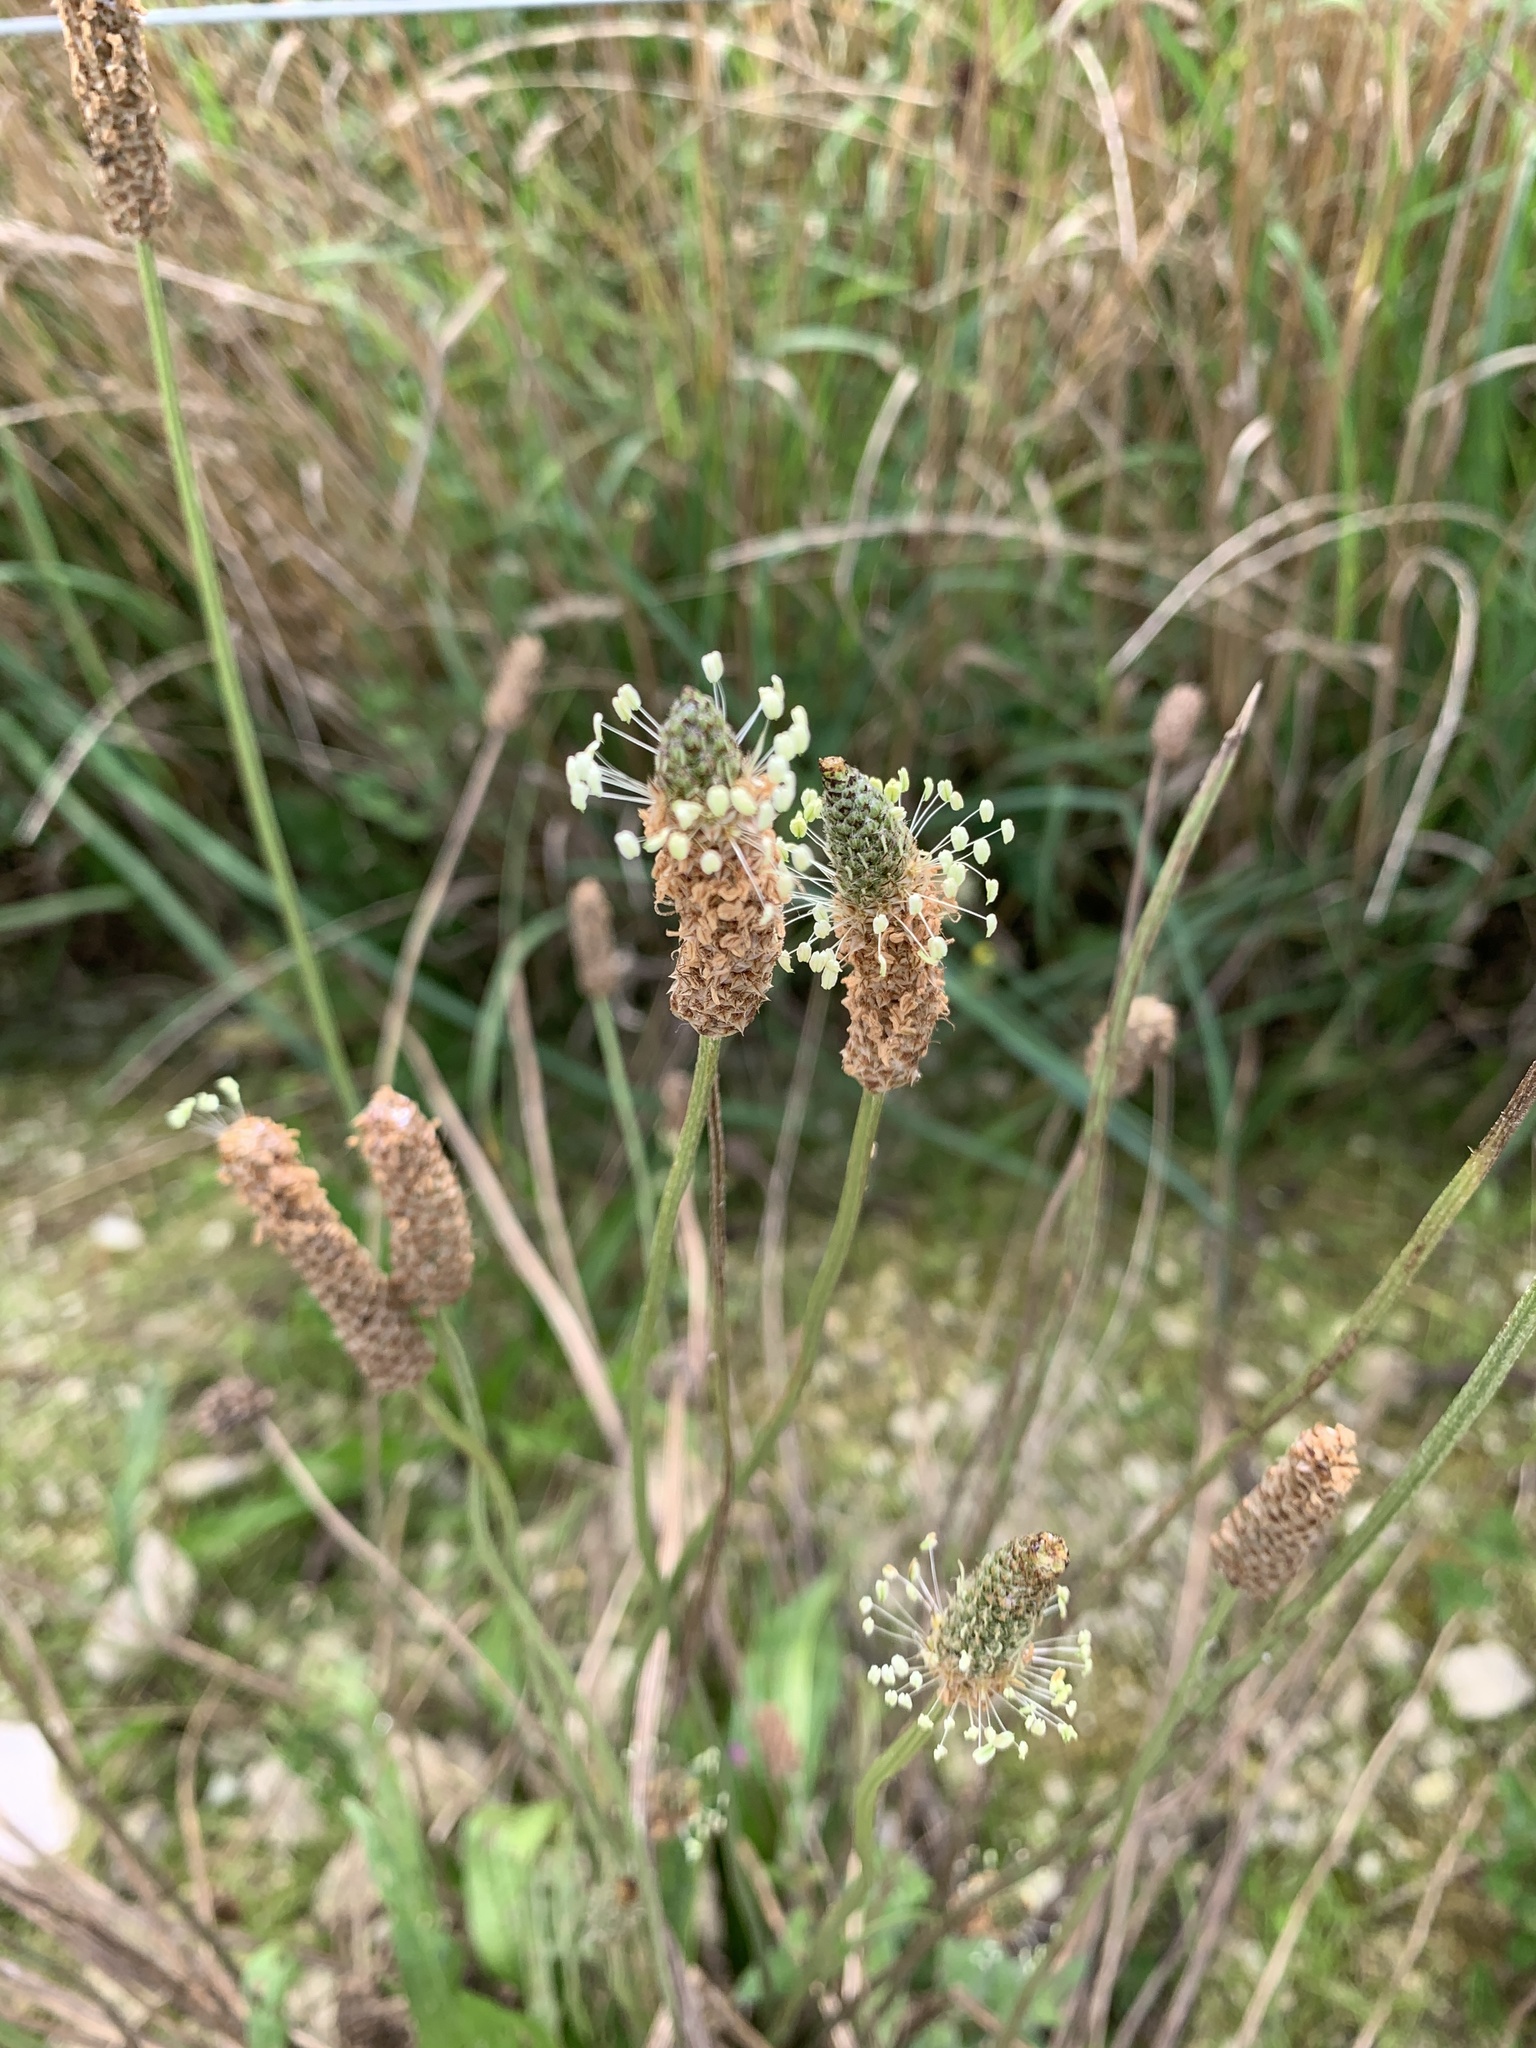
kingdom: Plantae
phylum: Tracheophyta
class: Magnoliopsida
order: Lamiales
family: Plantaginaceae
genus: Plantago
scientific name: Plantago lanceolata
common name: Ribwort plantain
